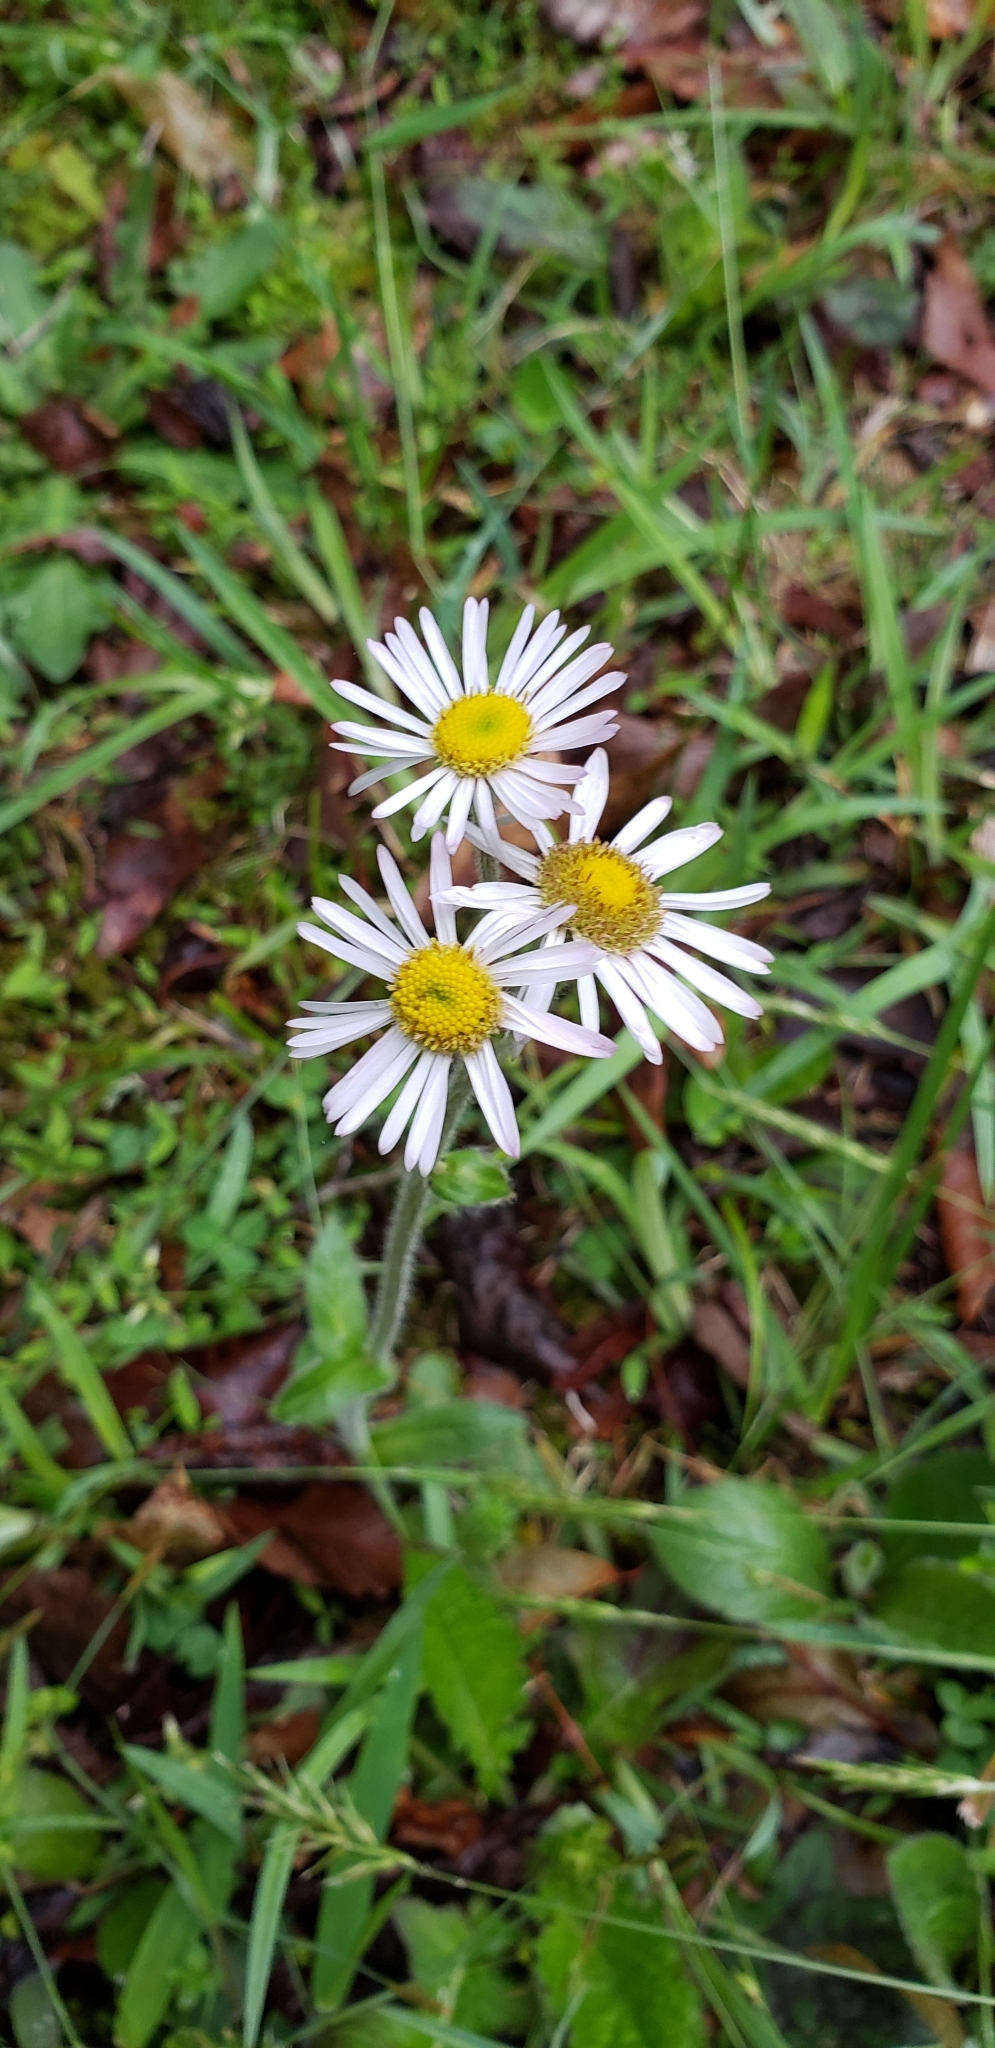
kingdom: Plantae
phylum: Tracheophyta
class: Magnoliopsida
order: Asterales
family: Asteraceae
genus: Erigeron
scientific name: Erigeron pulchellus
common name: Hairy fleabane
